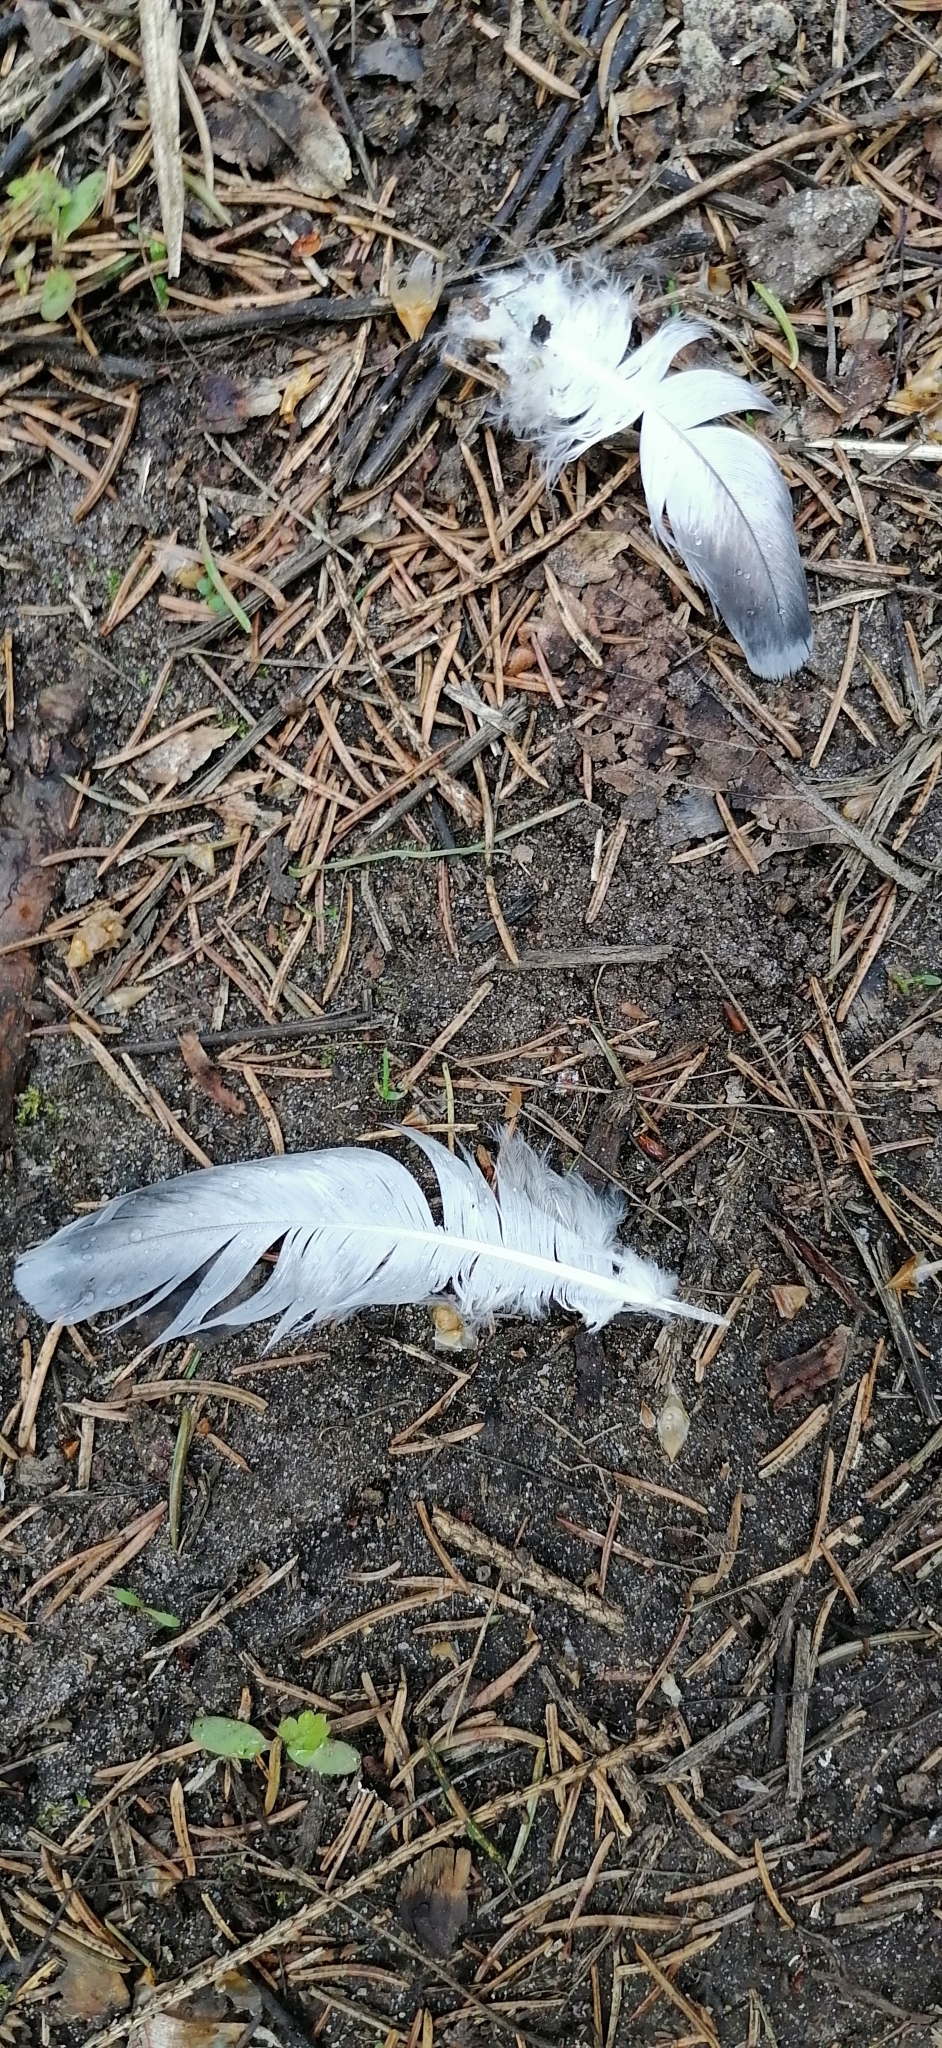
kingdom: Animalia
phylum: Chordata
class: Aves
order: Columbiformes
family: Columbidae
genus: Columba
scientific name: Columba livia
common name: Rock pigeon
